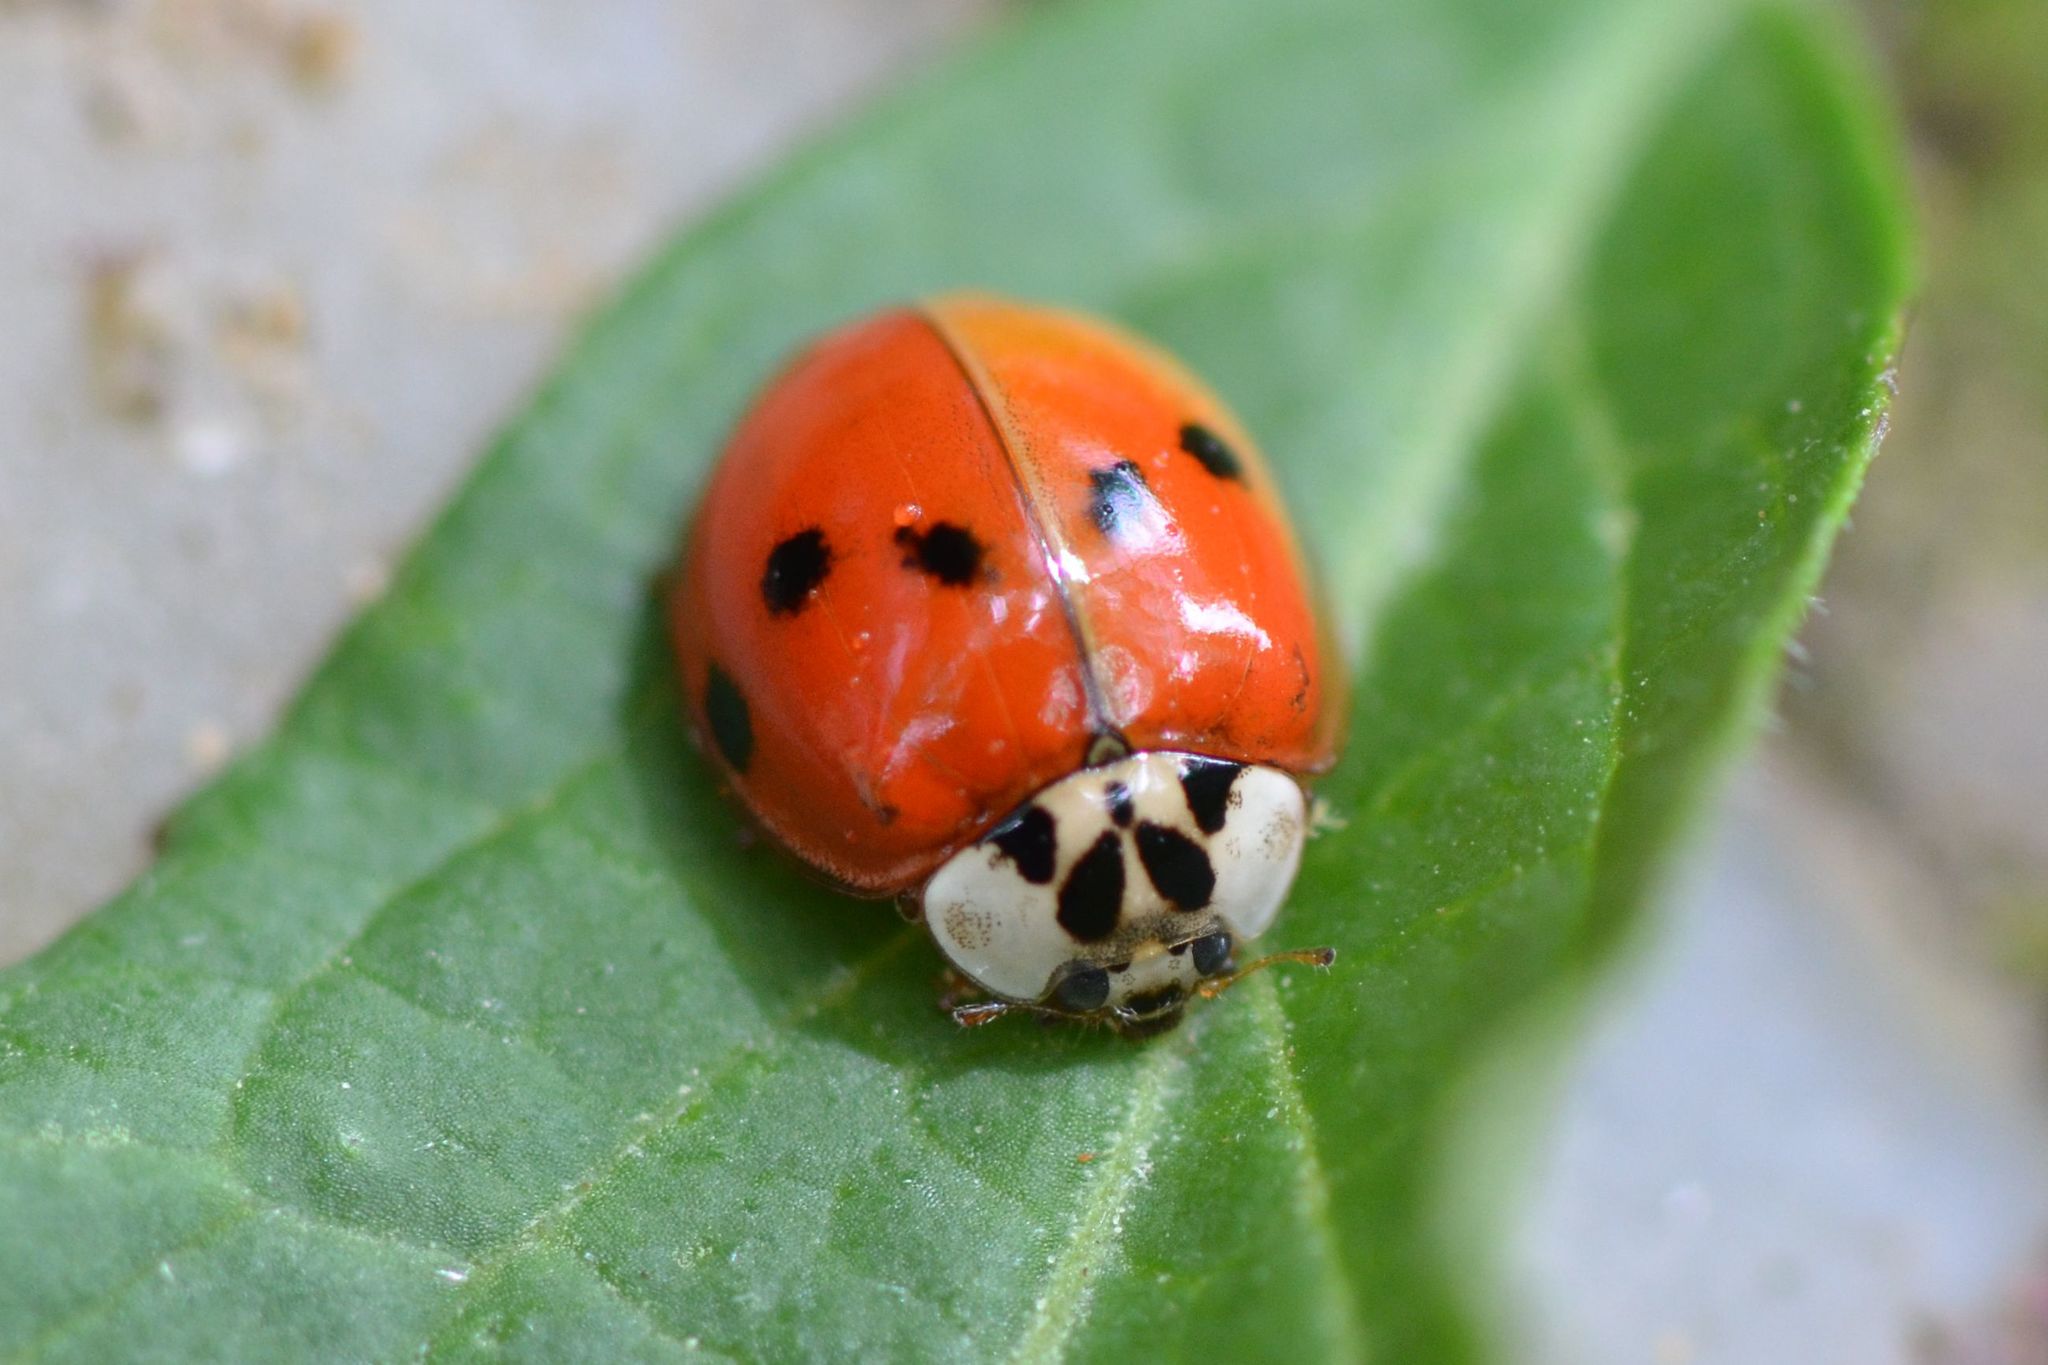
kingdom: Animalia
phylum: Arthropoda
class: Insecta
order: Coleoptera
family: Coccinellidae
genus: Harmonia
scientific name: Harmonia axyridis
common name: Harlequin ladybird
